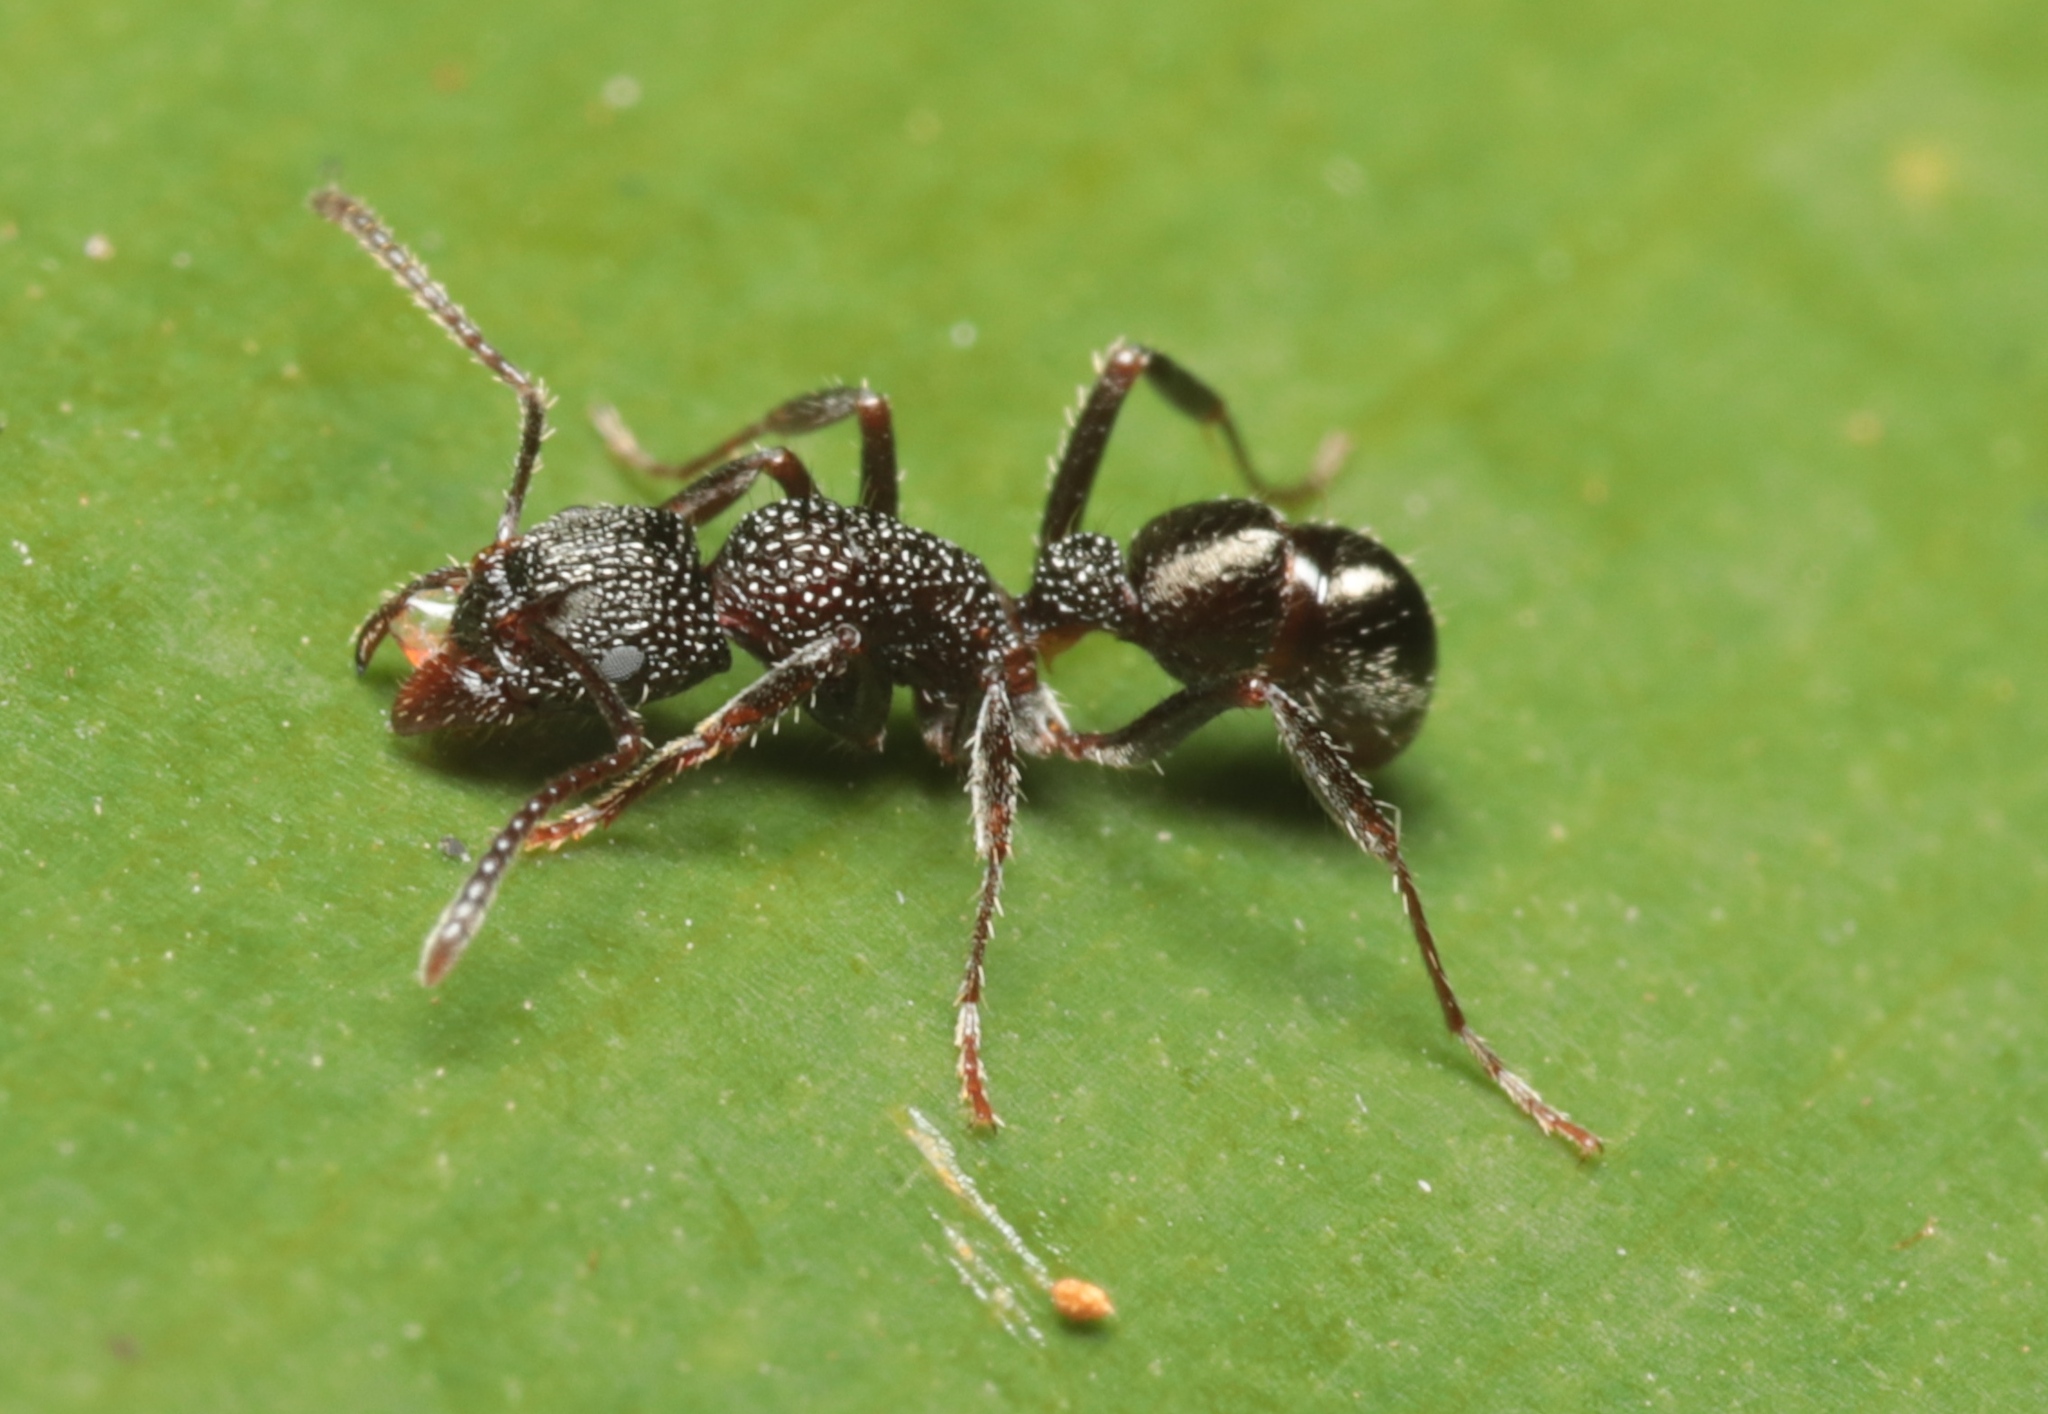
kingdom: Animalia
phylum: Arthropoda
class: Insecta
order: Hymenoptera
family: Formicidae
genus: Rhytidoponera
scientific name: Rhytidoponera anceps
